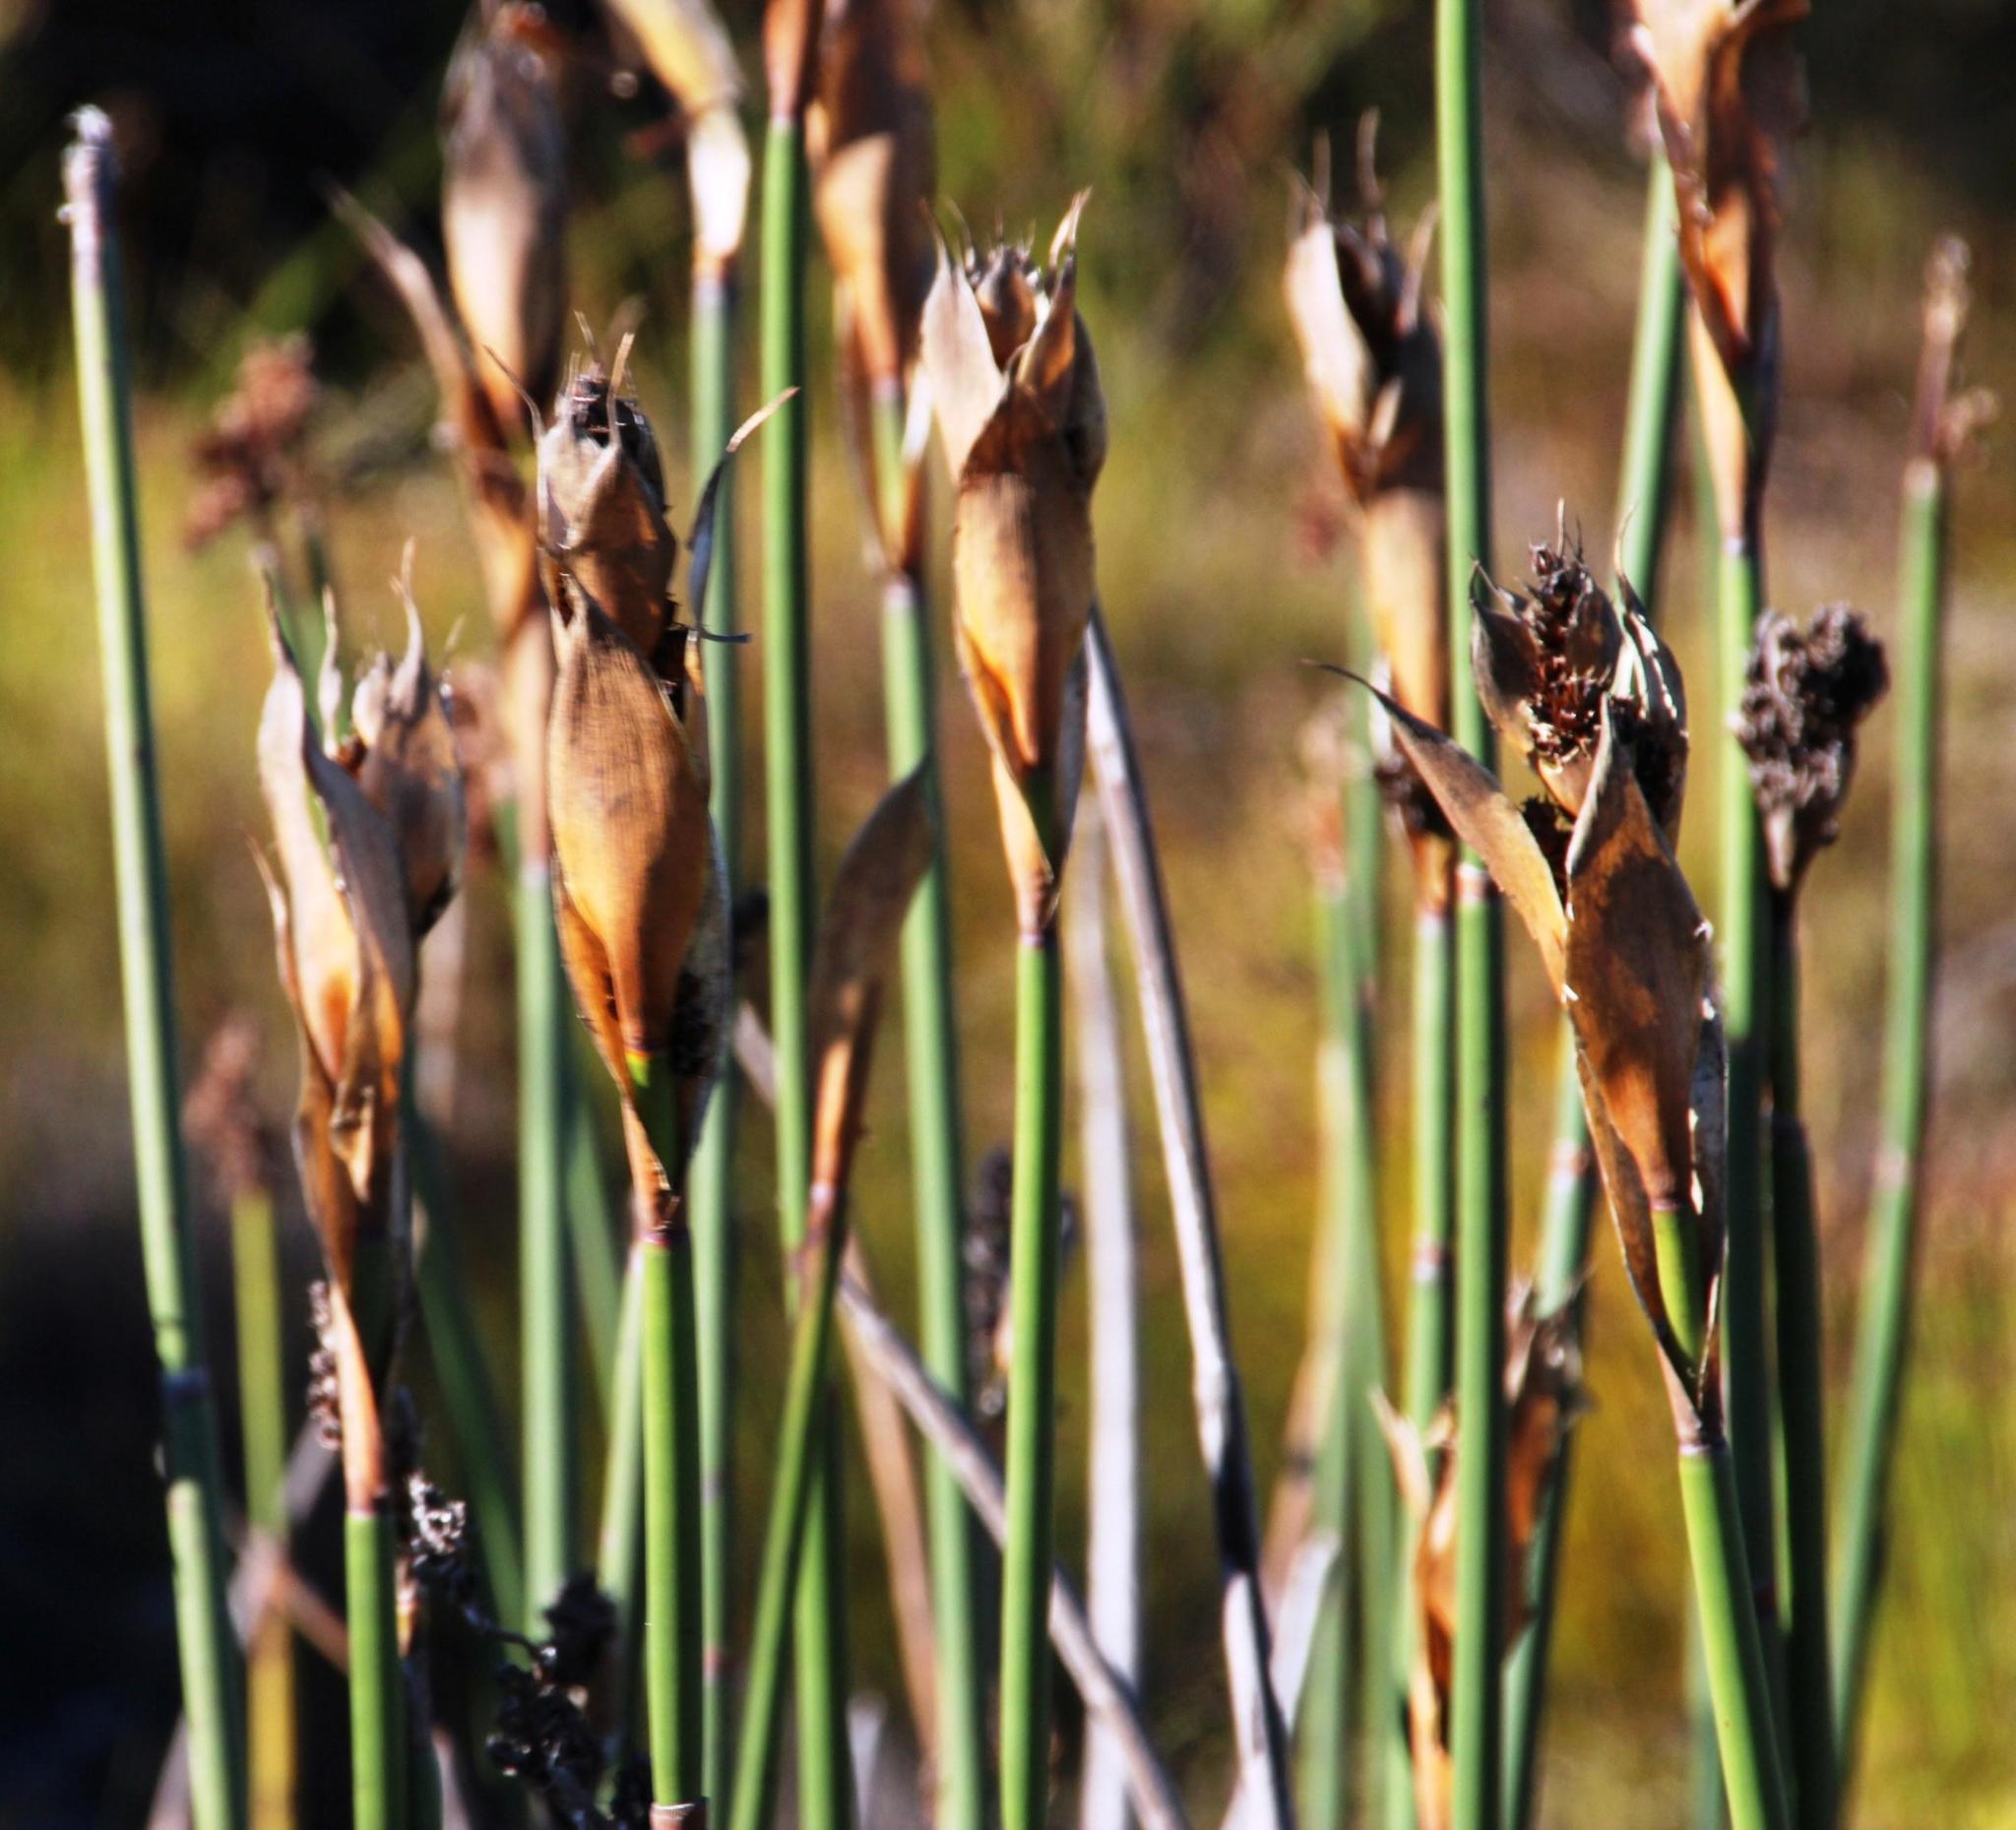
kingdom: Plantae
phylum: Tracheophyta
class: Liliopsida
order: Poales
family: Restionaceae
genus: Elegia
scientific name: Elegia mucronata
